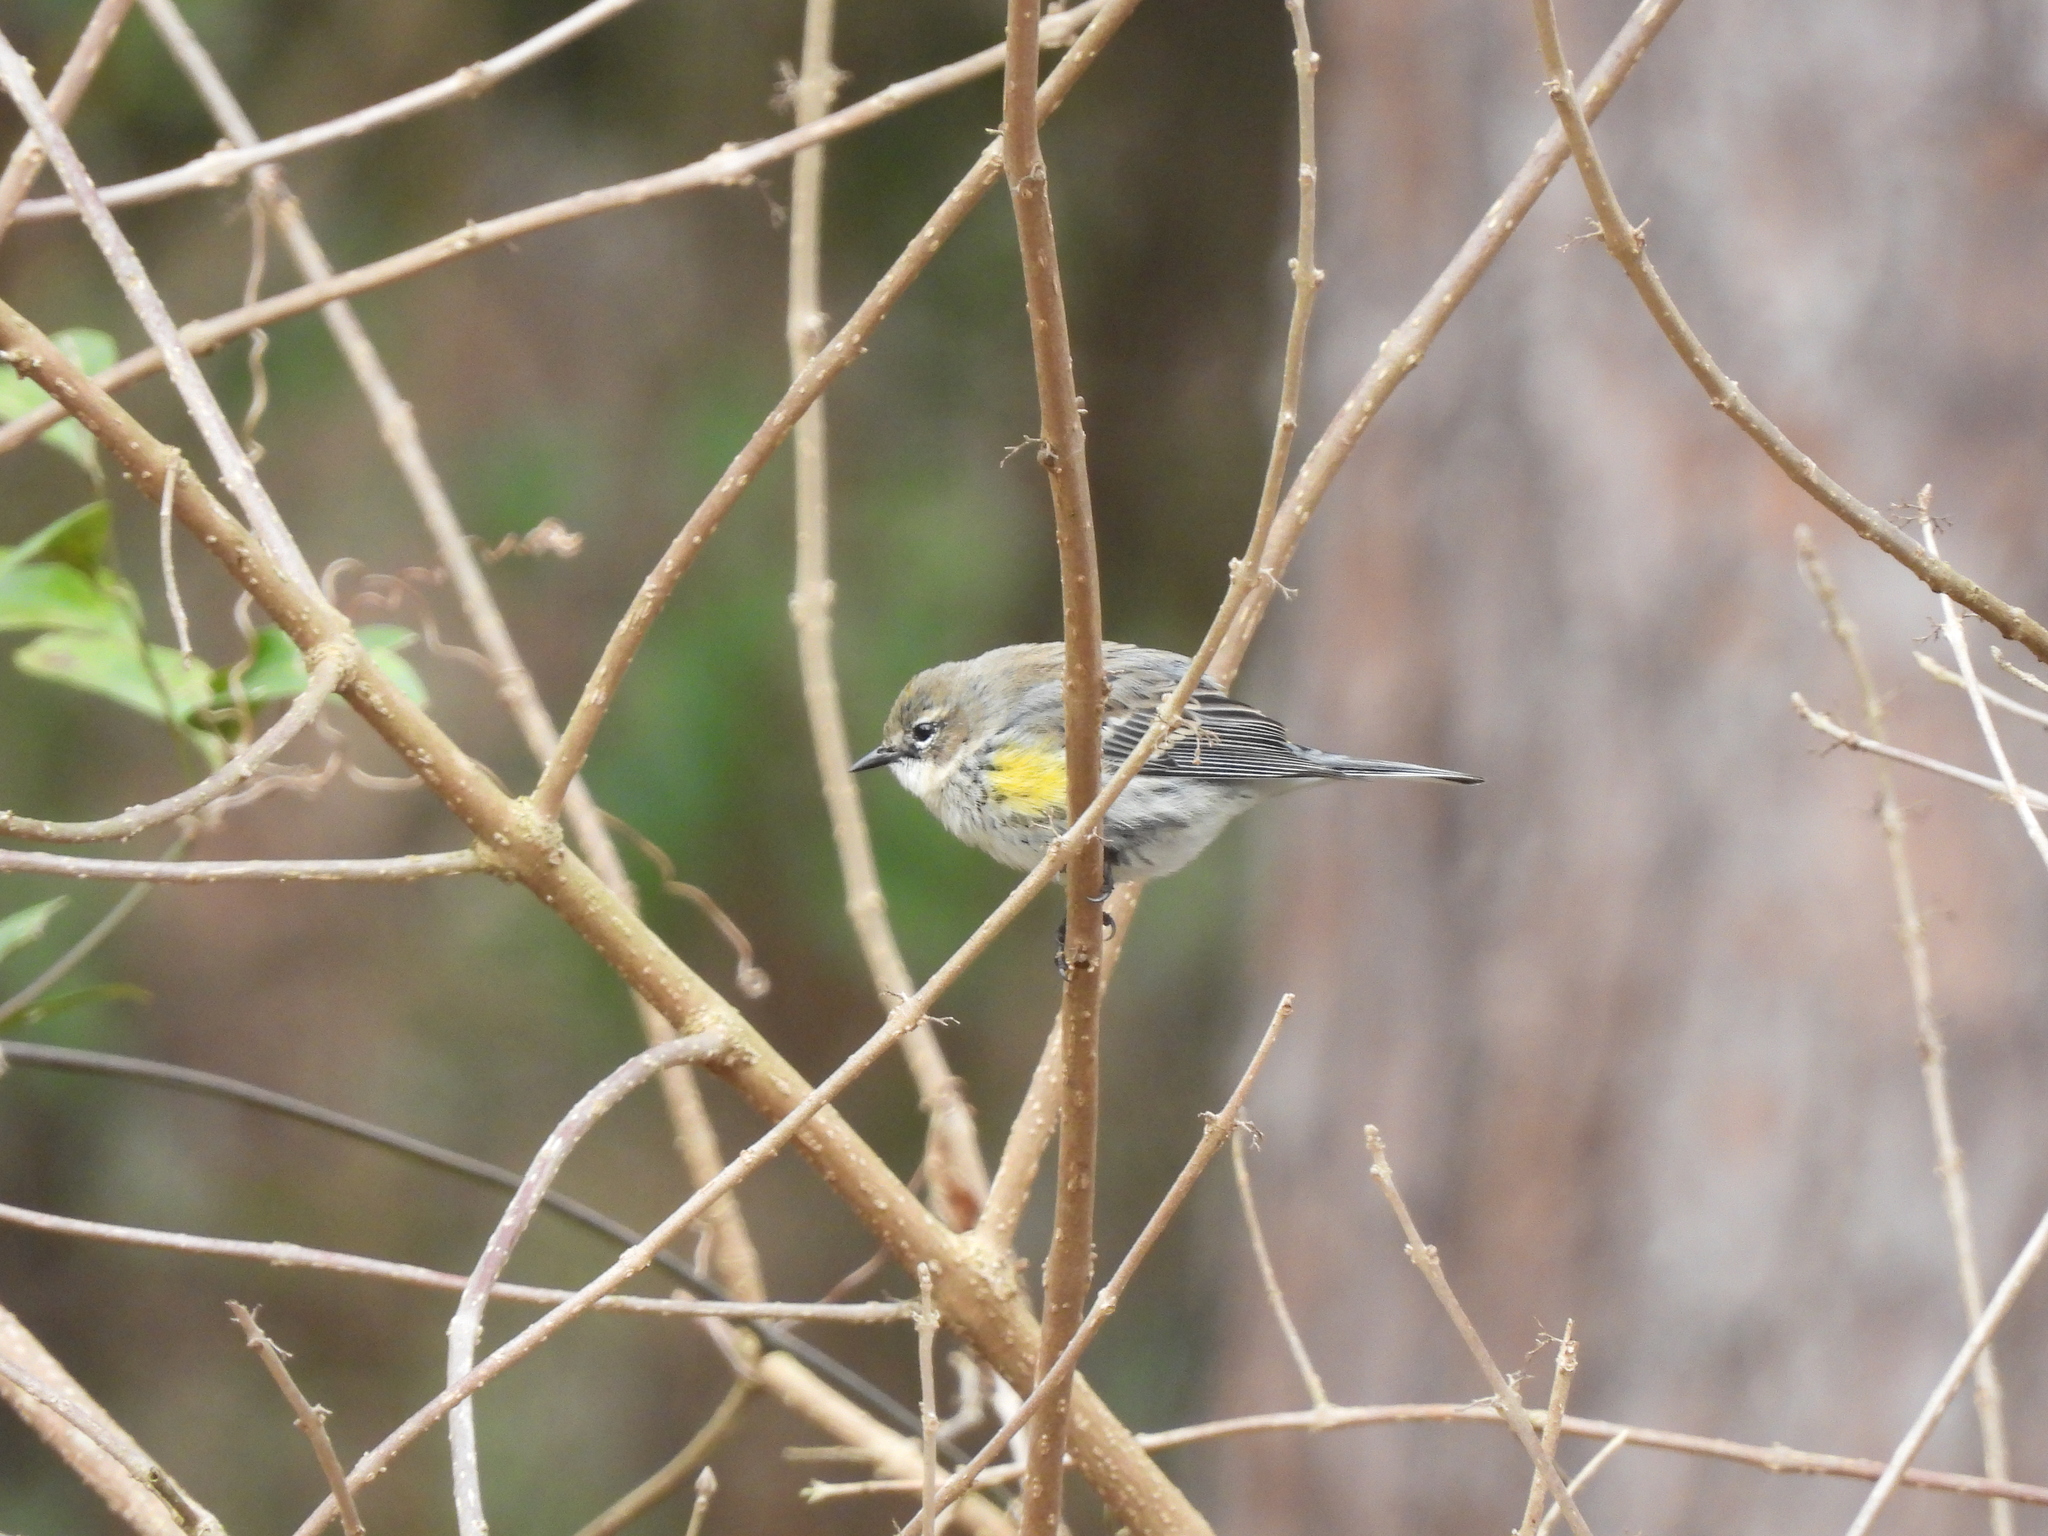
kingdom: Animalia
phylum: Chordata
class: Aves
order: Passeriformes
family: Parulidae
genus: Setophaga
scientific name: Setophaga coronata
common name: Myrtle warbler
